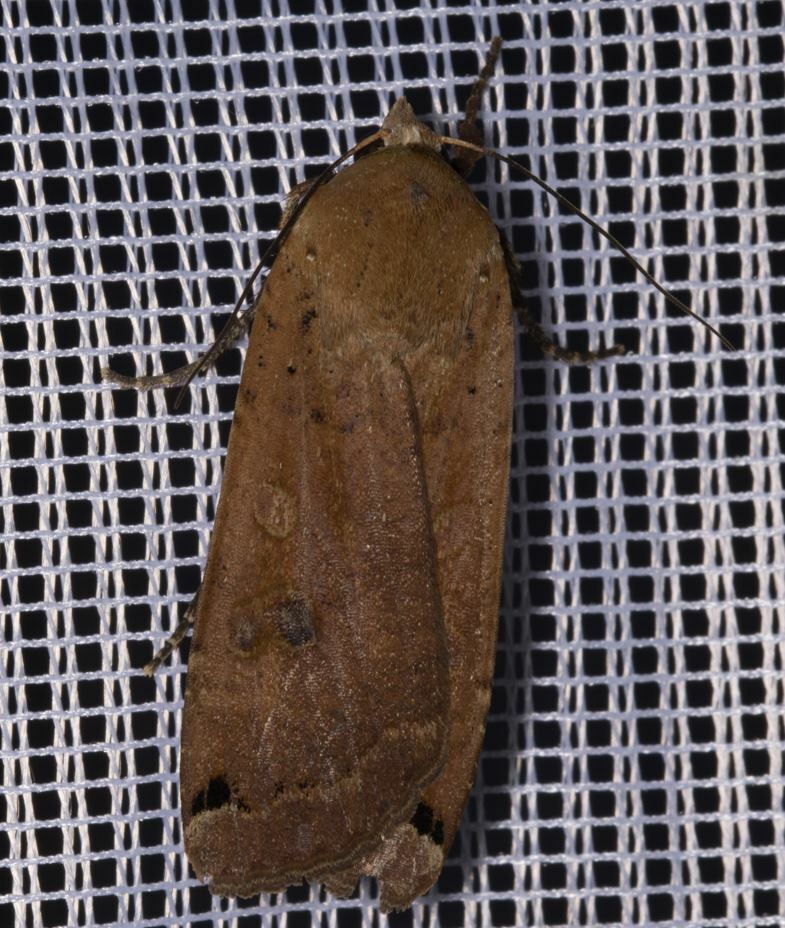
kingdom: Animalia
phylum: Arthropoda
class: Insecta
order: Lepidoptera
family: Noctuidae
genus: Noctua
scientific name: Noctua pronuba
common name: Large yellow underwing
